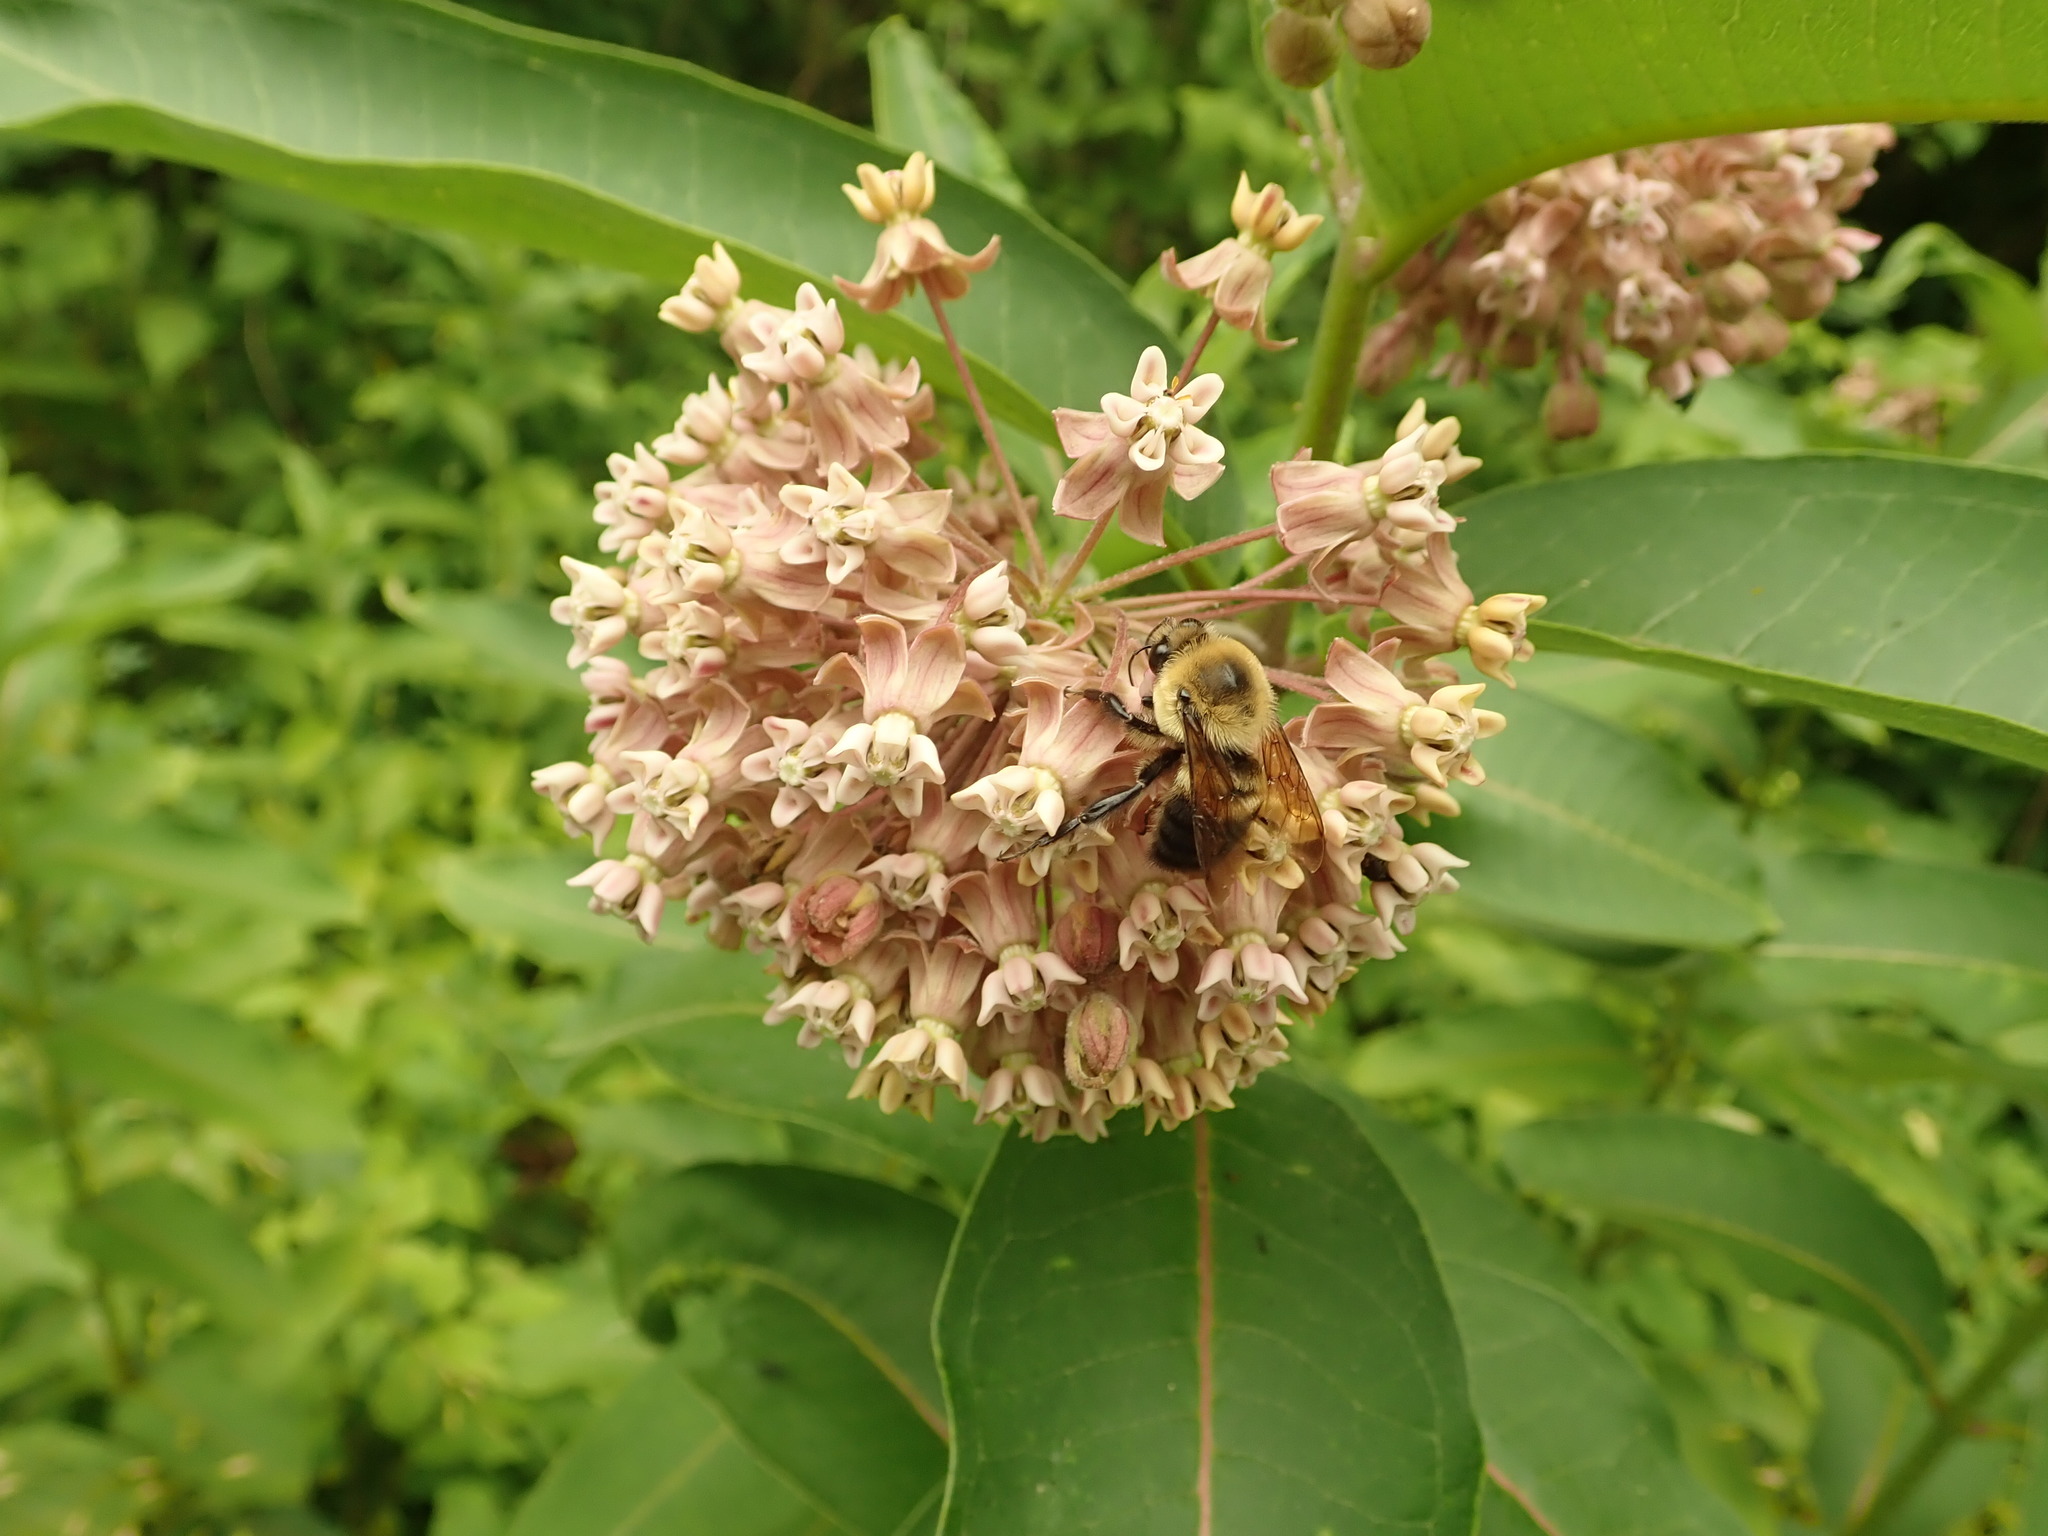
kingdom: Plantae
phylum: Tracheophyta
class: Magnoliopsida
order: Gentianales
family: Apocynaceae
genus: Asclepias
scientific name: Asclepias syriaca
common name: Common milkweed
